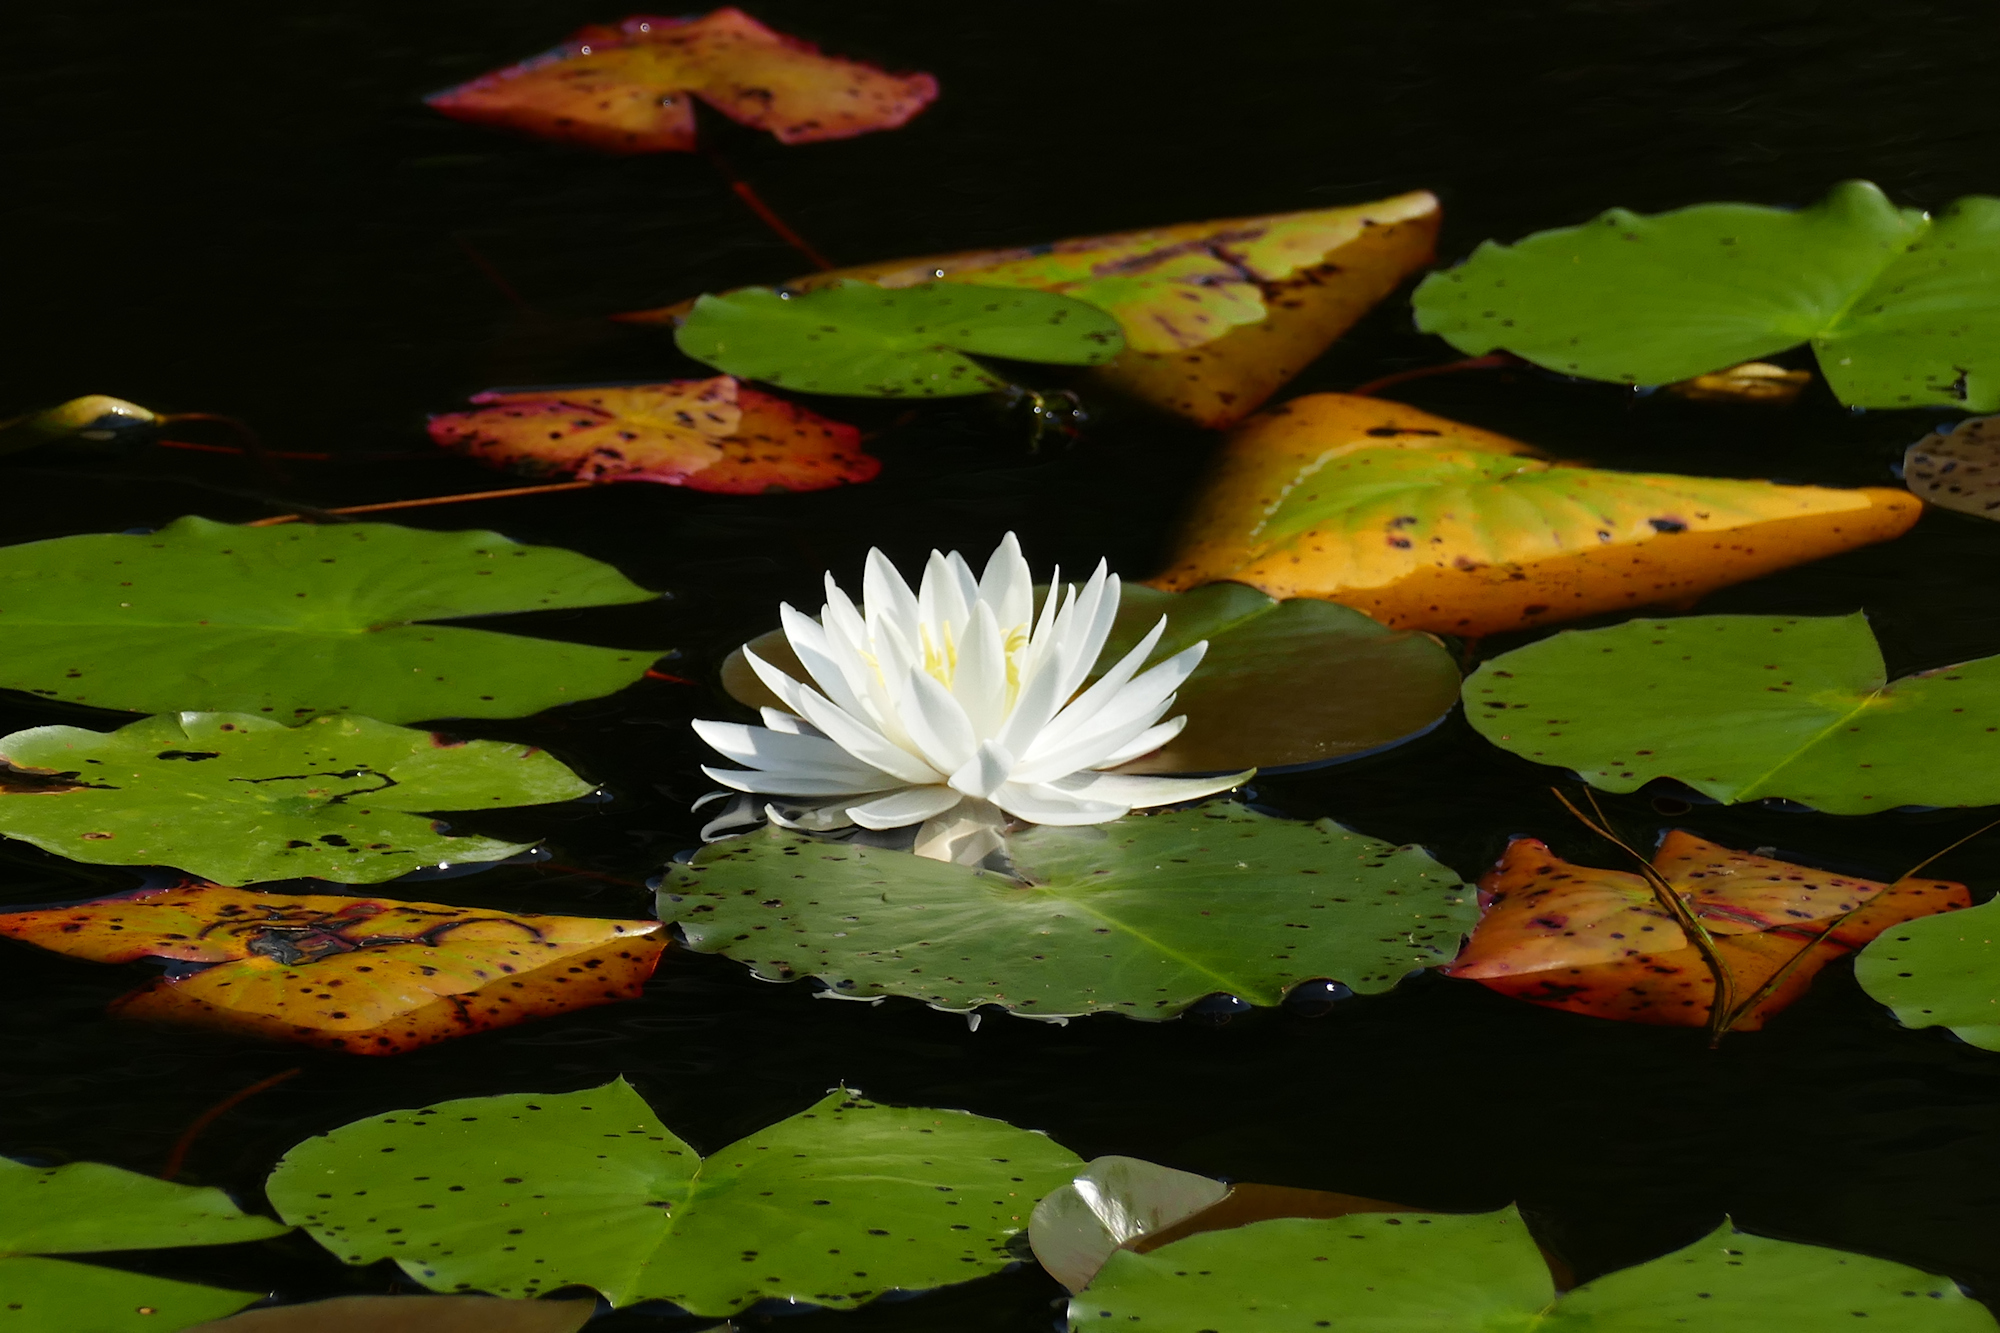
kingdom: Plantae
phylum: Tracheophyta
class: Magnoliopsida
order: Nymphaeales
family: Nymphaeaceae
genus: Nymphaea
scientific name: Nymphaea odorata
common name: Fragrant water-lily
